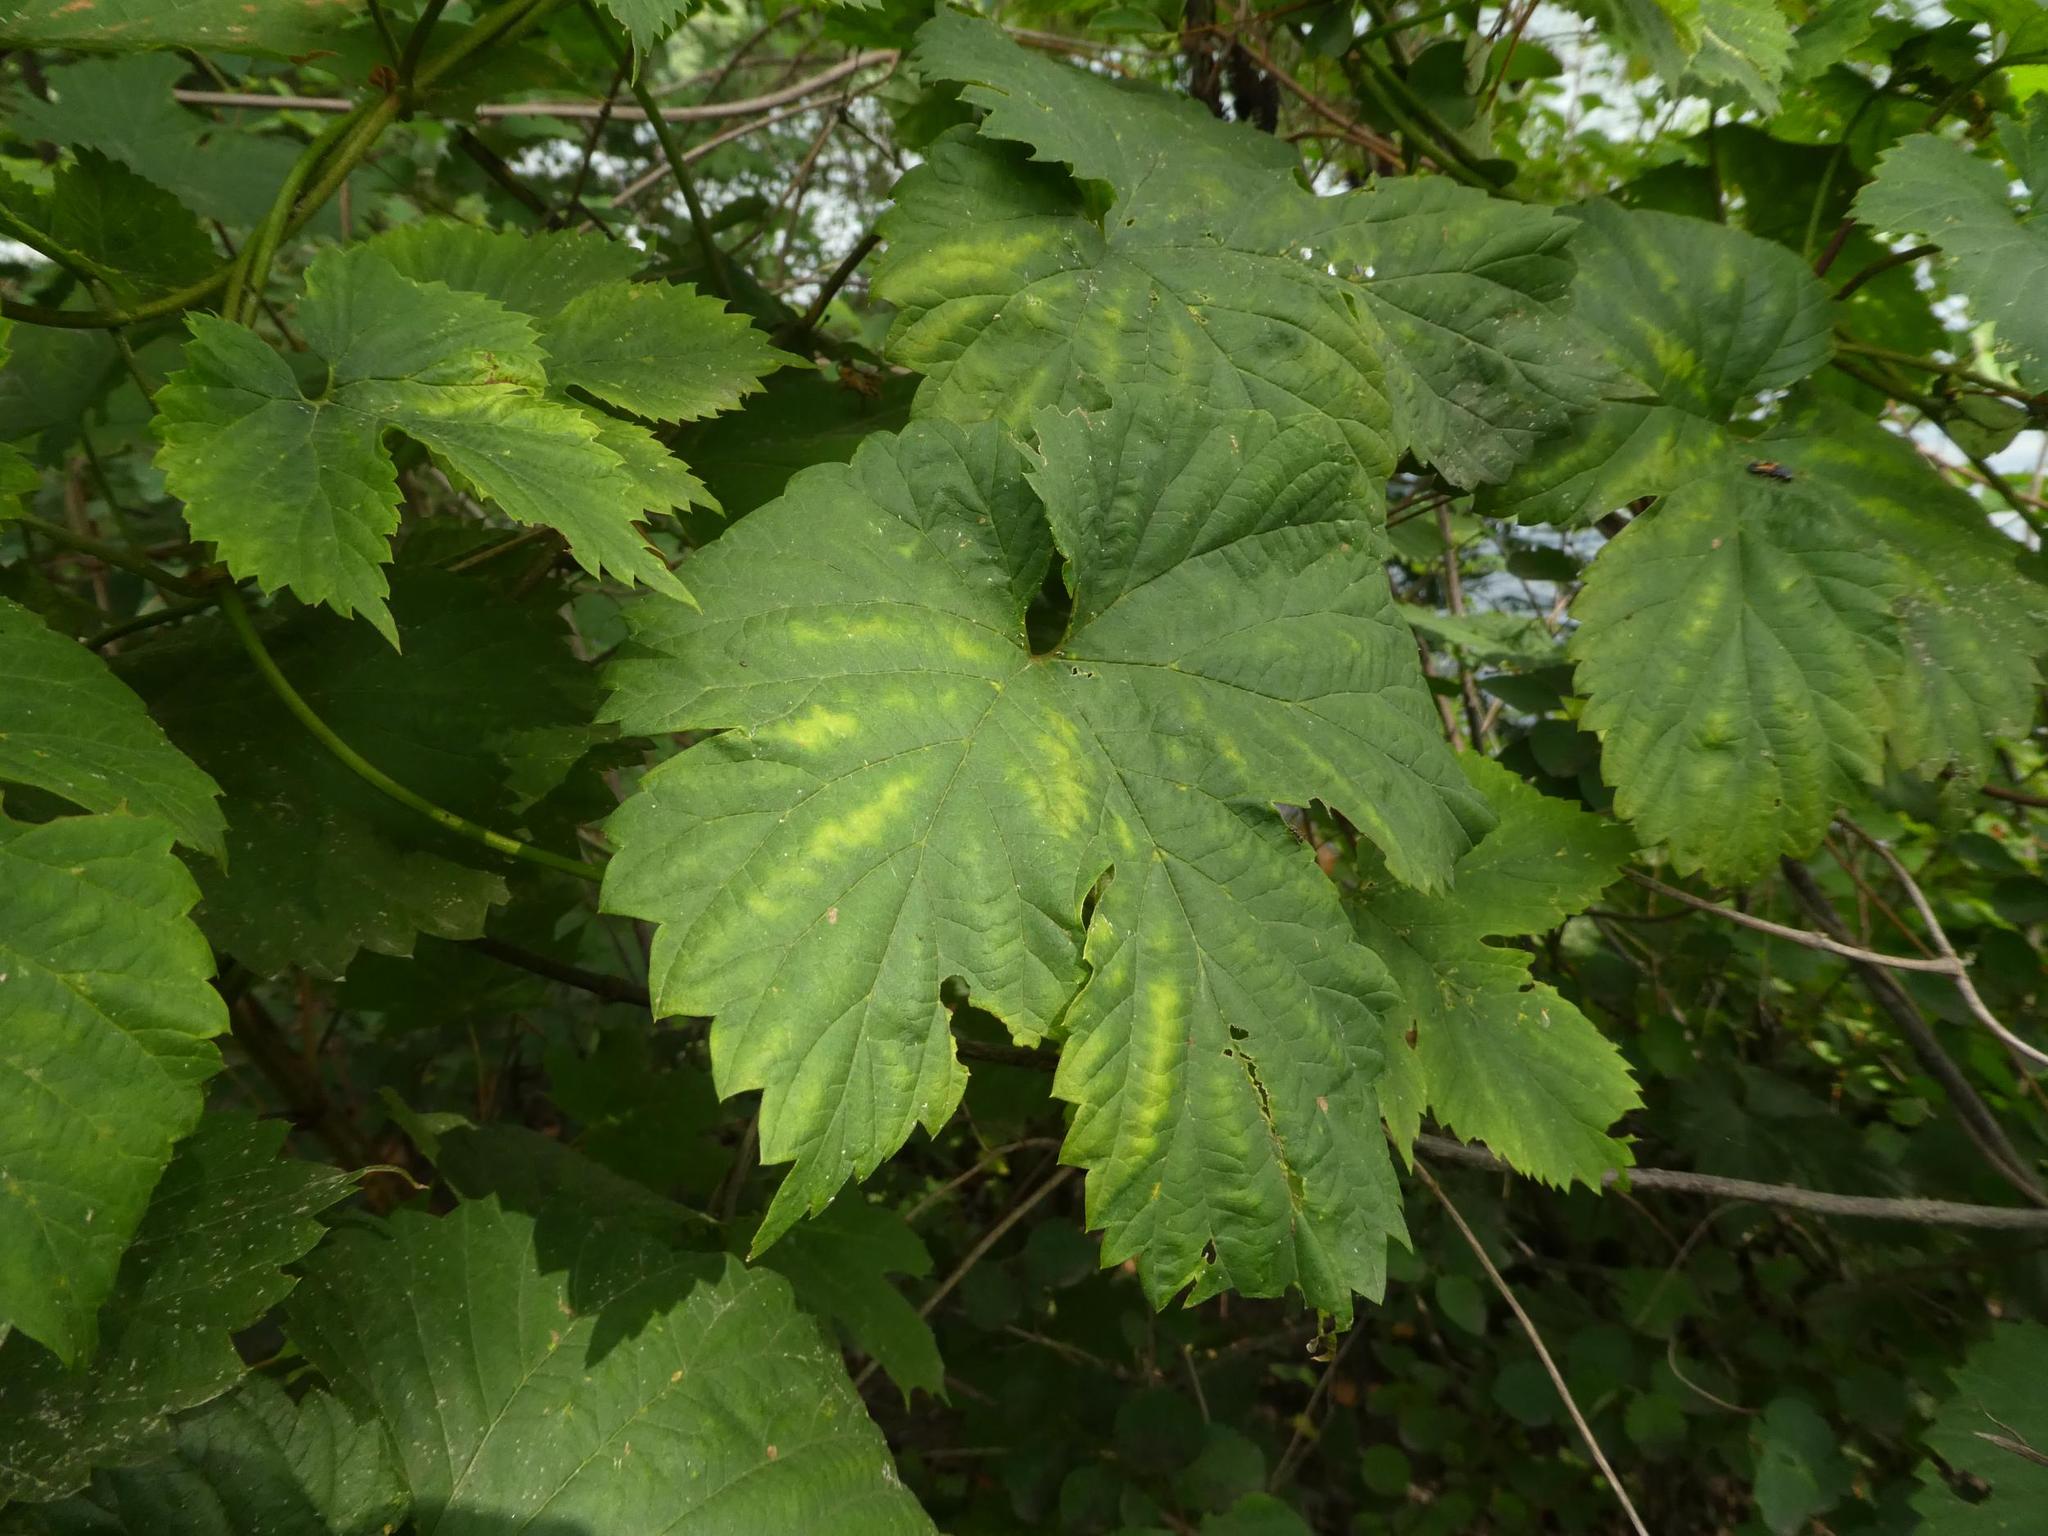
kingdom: Plantae
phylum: Tracheophyta
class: Magnoliopsida
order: Rosales
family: Cannabaceae
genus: Humulus
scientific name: Humulus lupulus
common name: Hop
